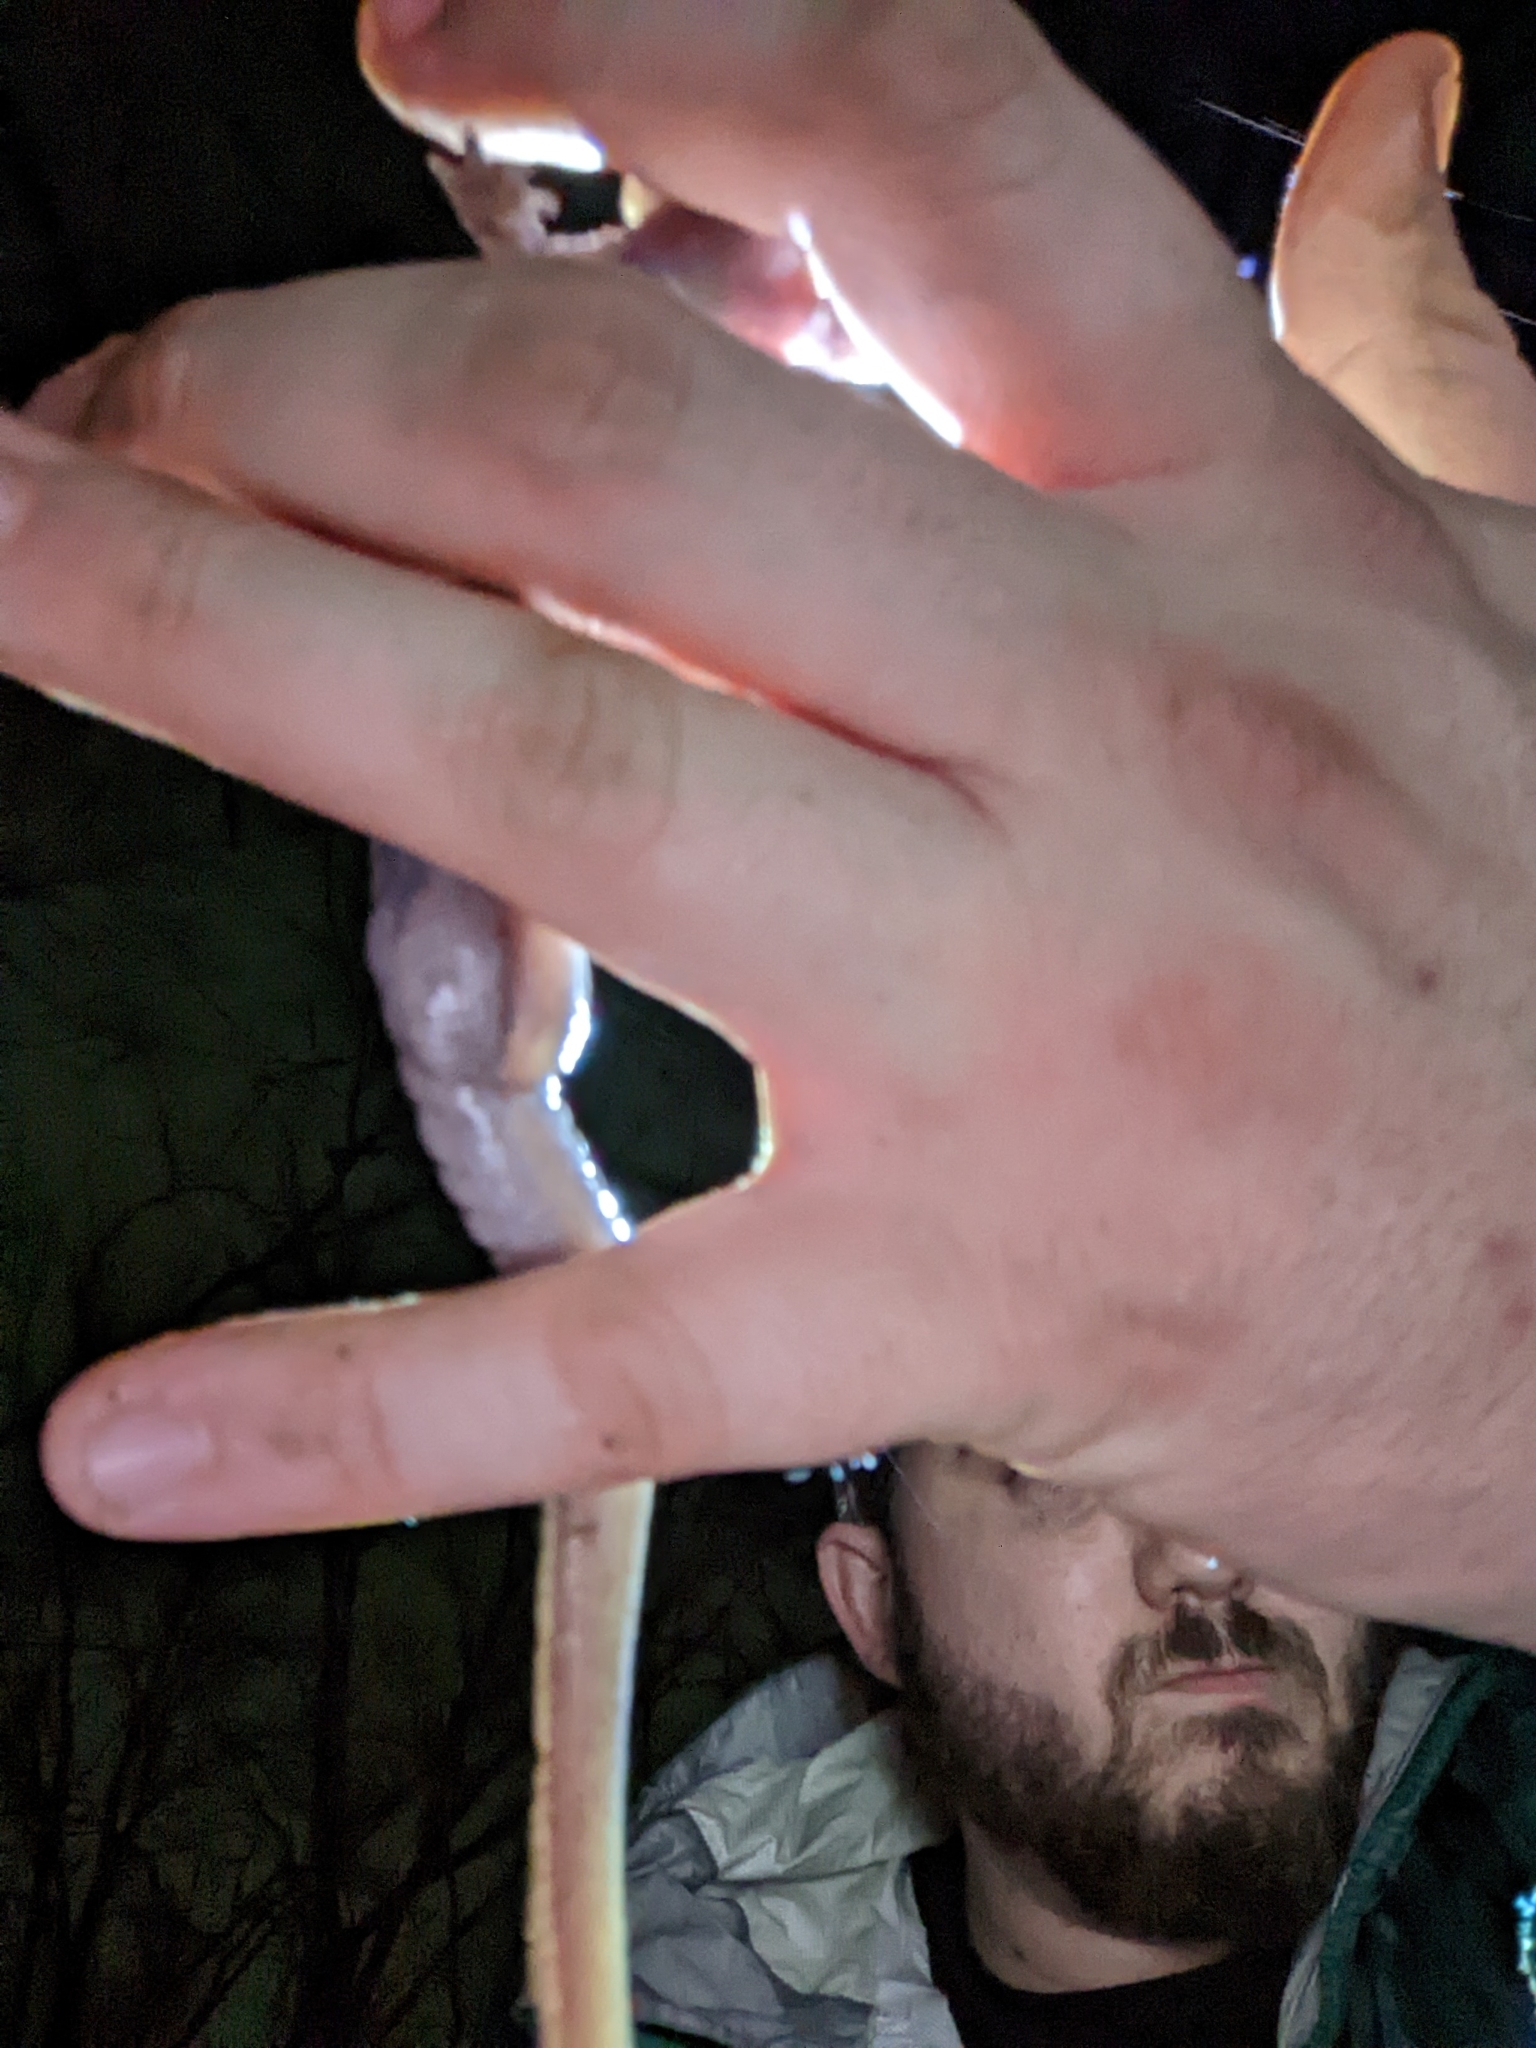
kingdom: Animalia
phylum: Chordata
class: Amphibia
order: Caudata
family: Ambystomatidae
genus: Ambystoma
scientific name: Ambystoma maculatum
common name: Spotted salamander
